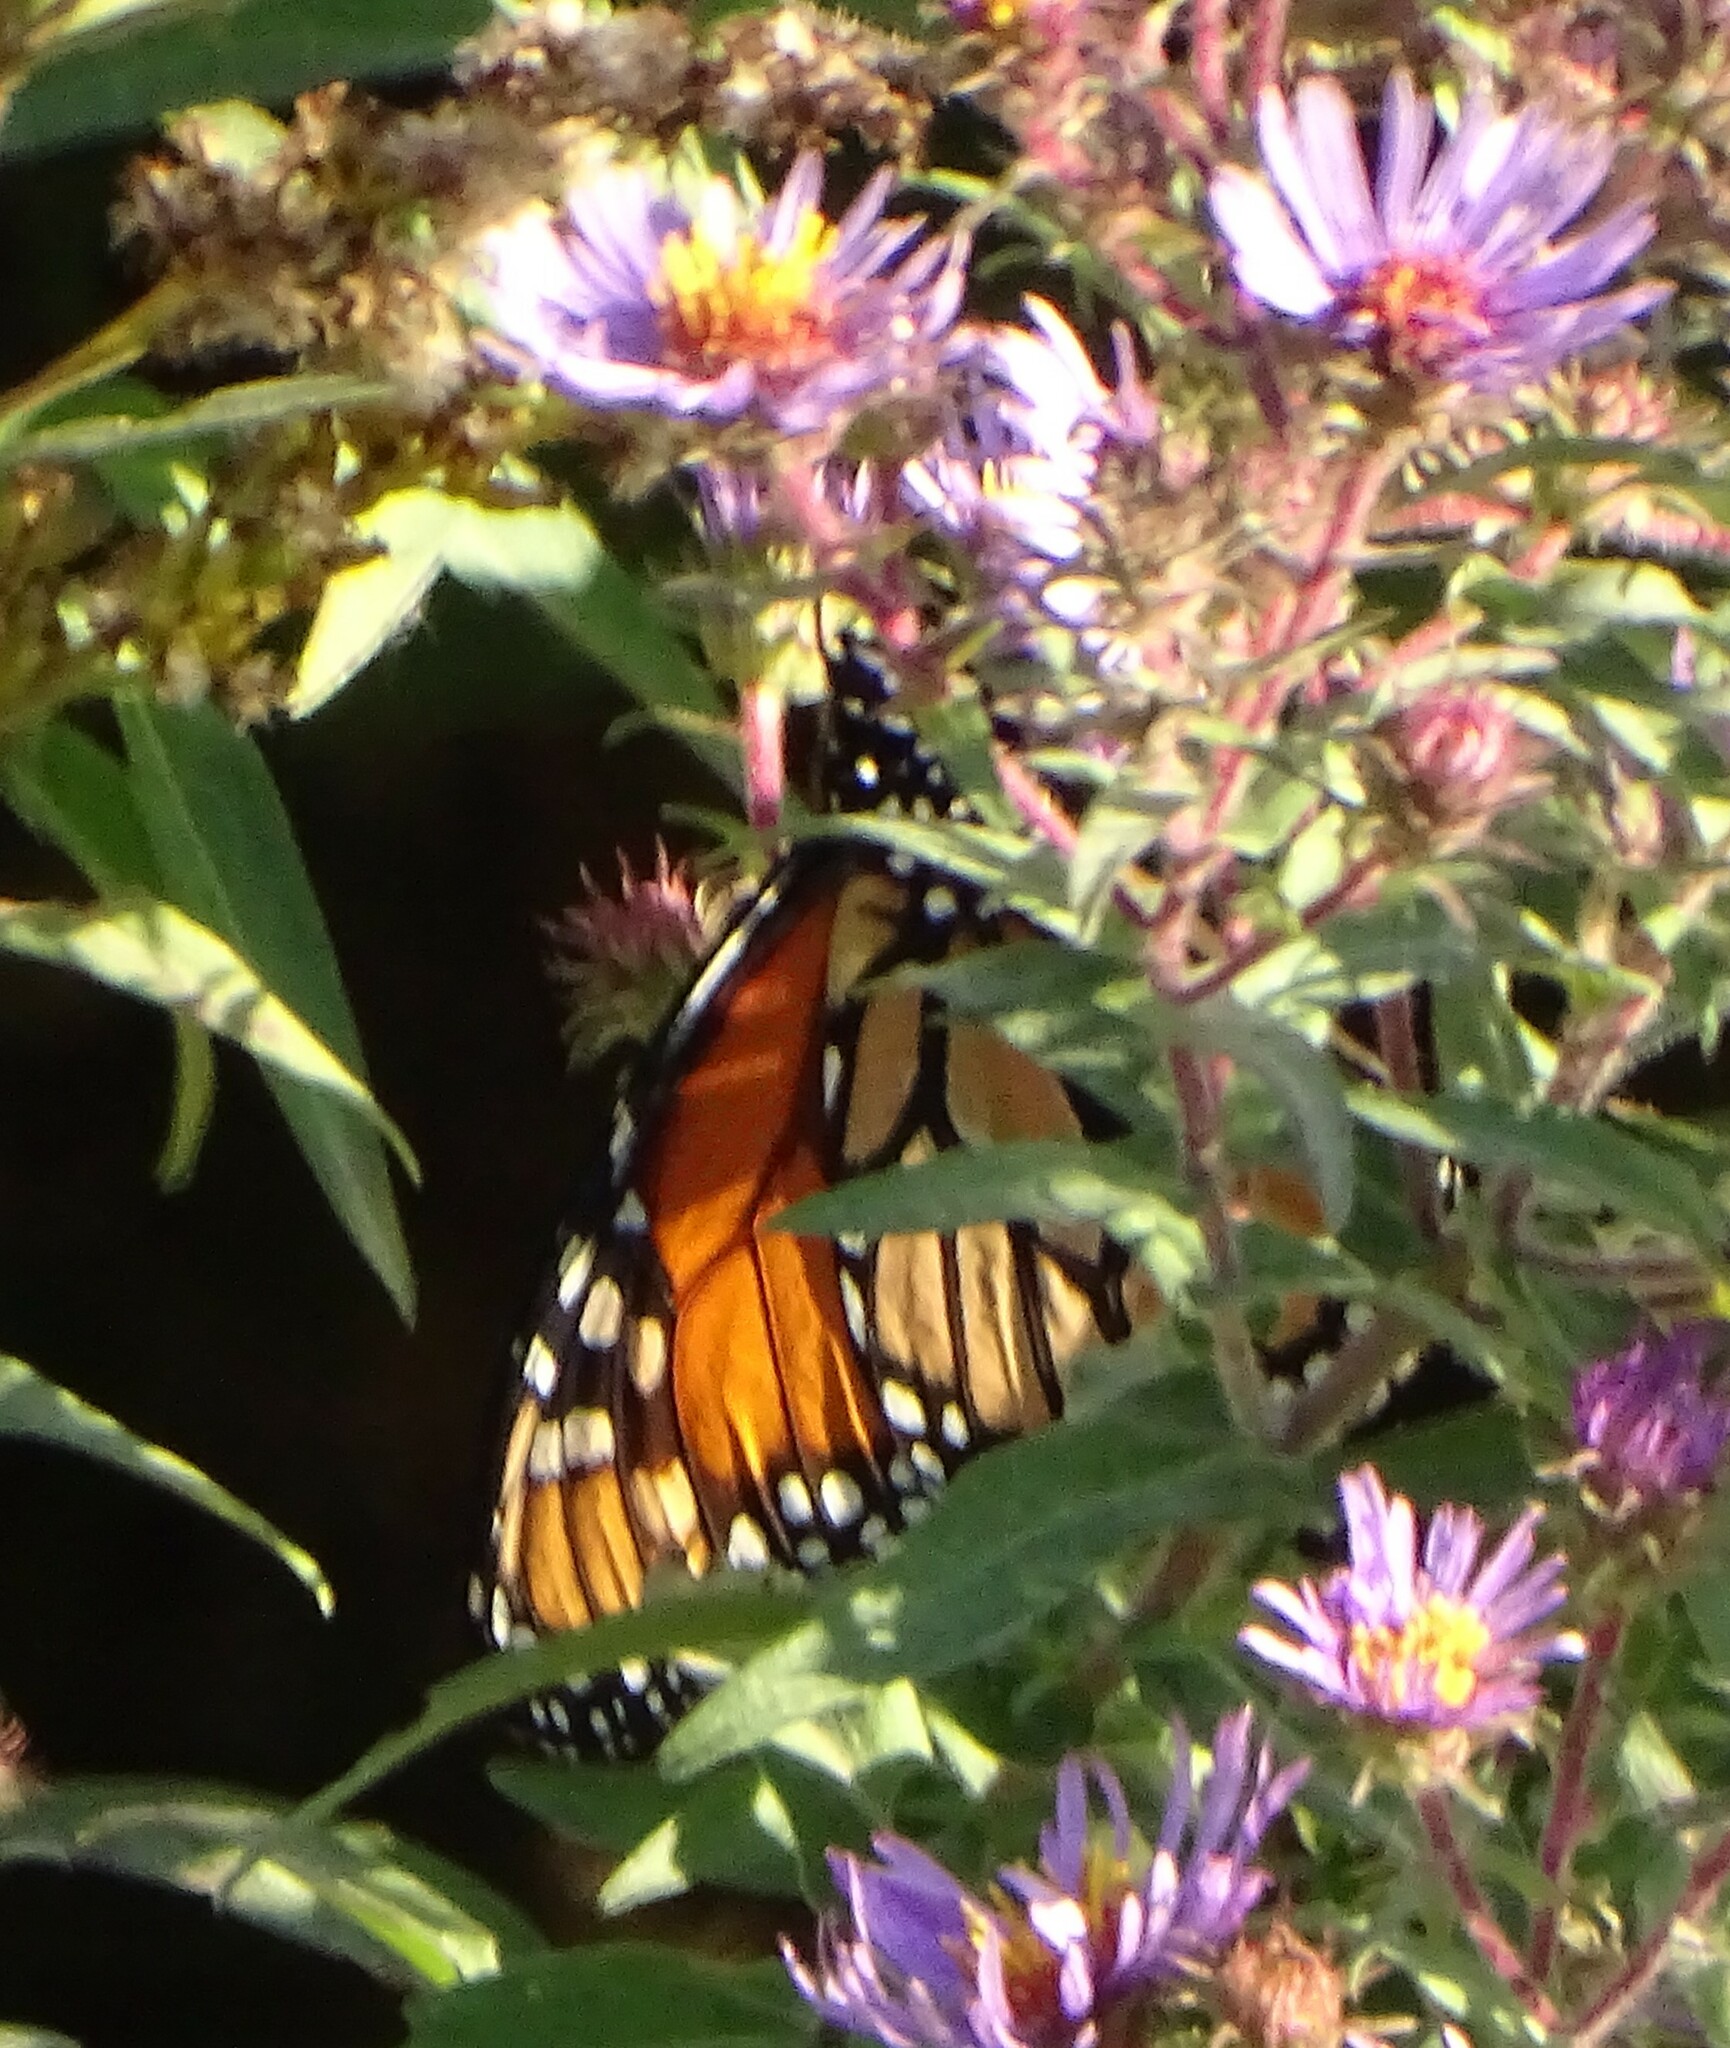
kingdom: Animalia
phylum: Arthropoda
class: Insecta
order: Lepidoptera
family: Nymphalidae
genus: Danaus
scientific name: Danaus plexippus
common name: Monarch
